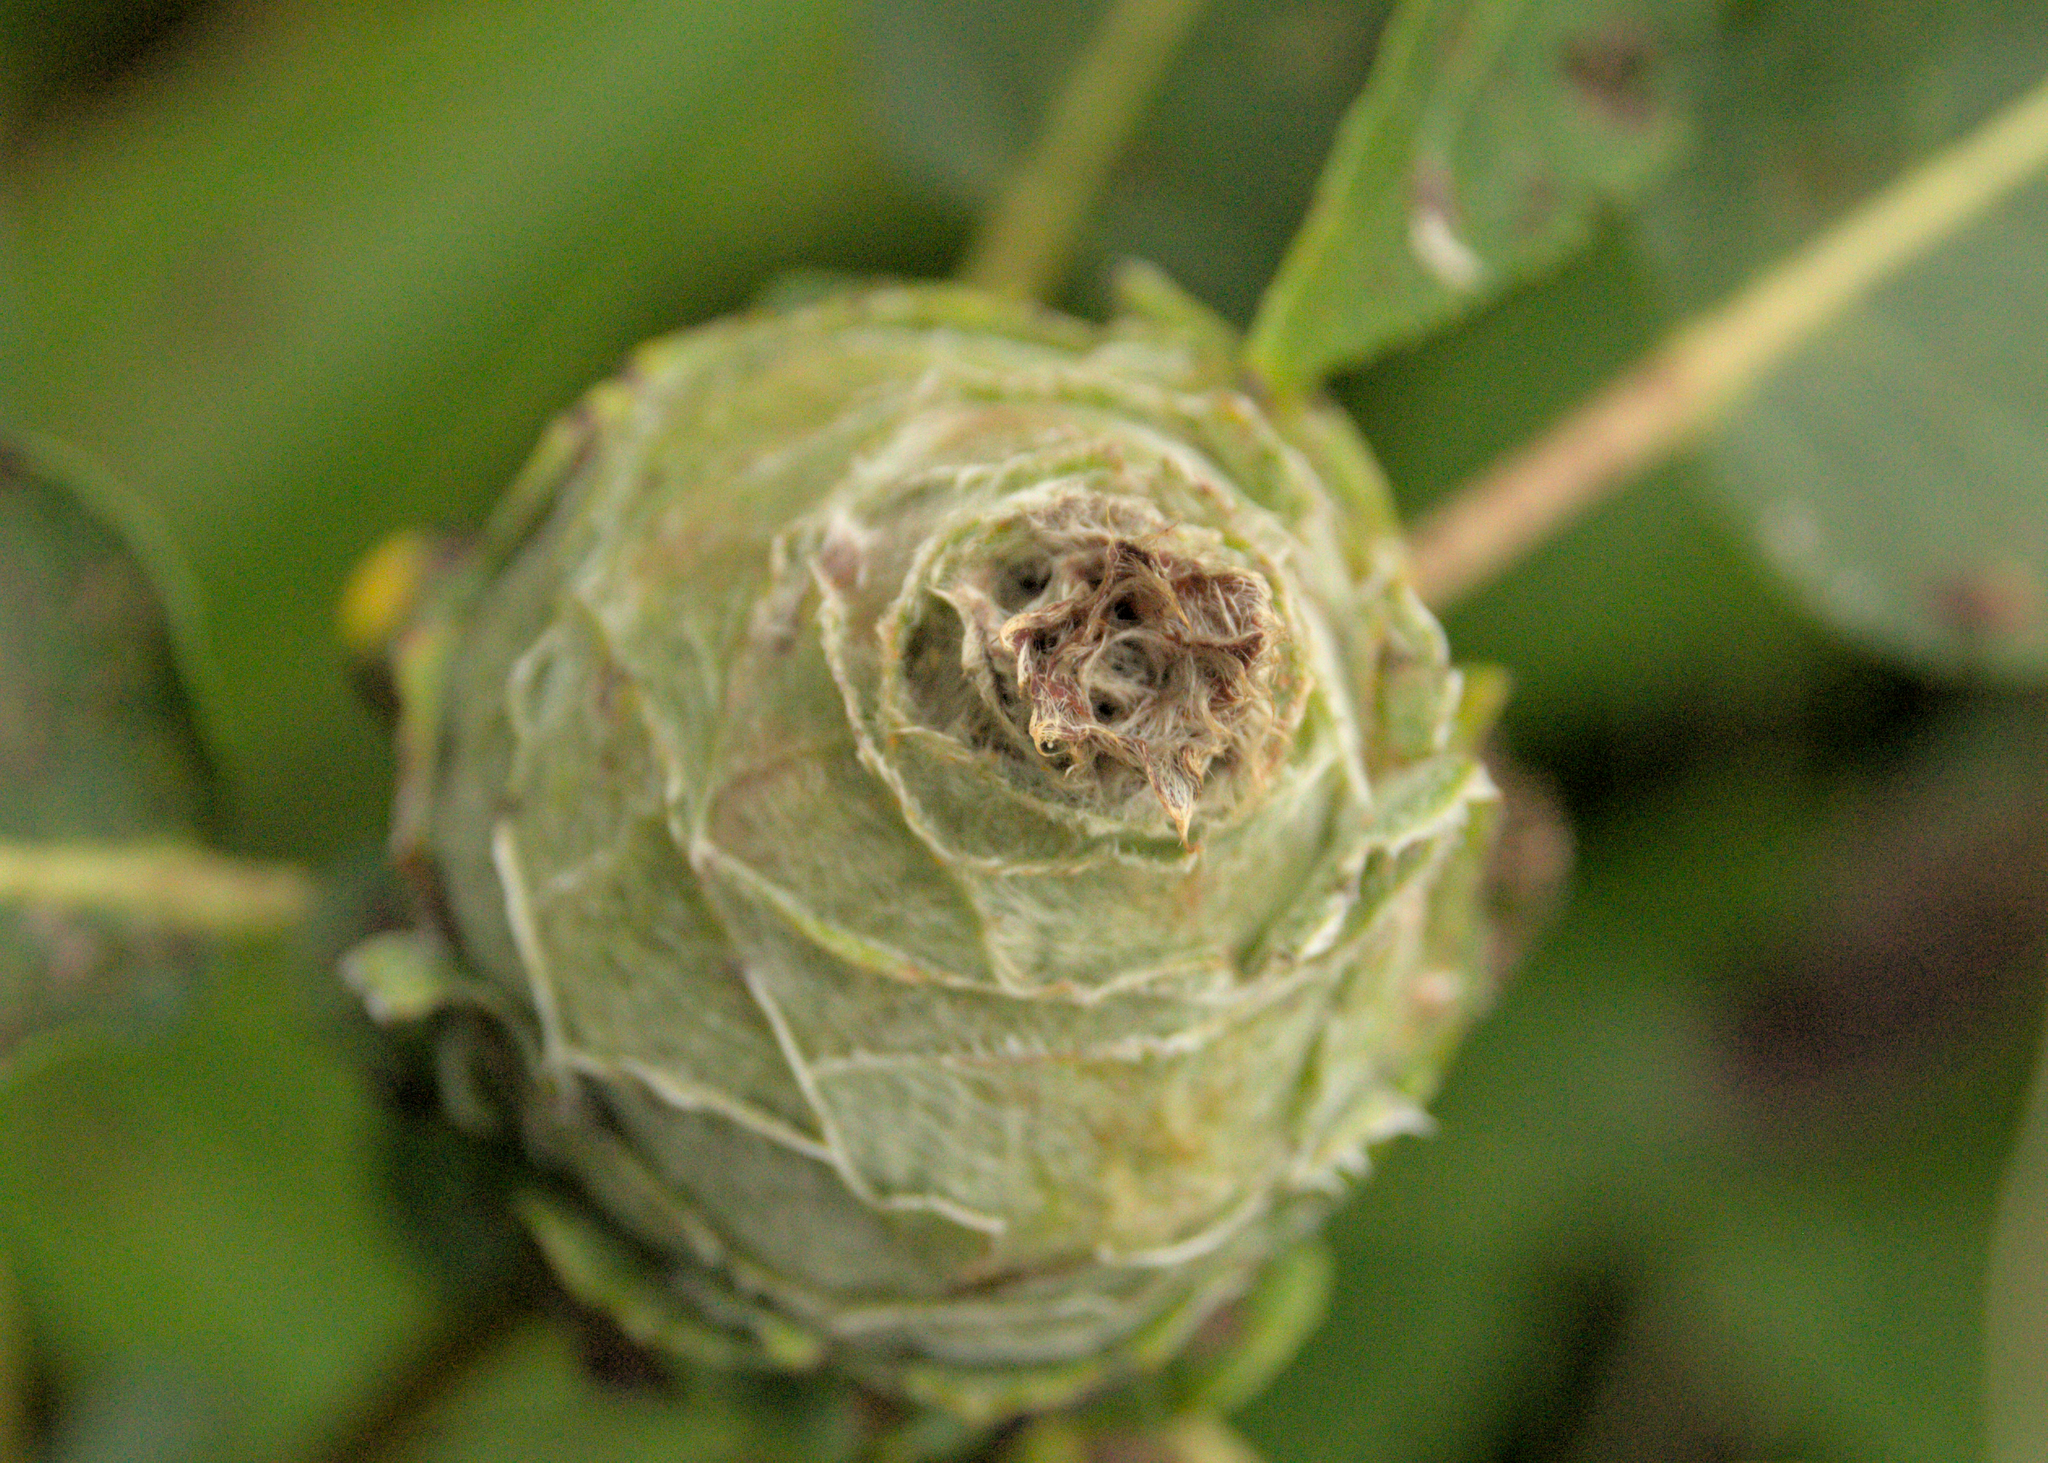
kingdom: Animalia
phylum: Arthropoda
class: Insecta
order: Diptera
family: Cecidomyiidae
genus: Rabdophaga
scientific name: Rabdophaga strobiloides
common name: Willow pinecone gall midge
